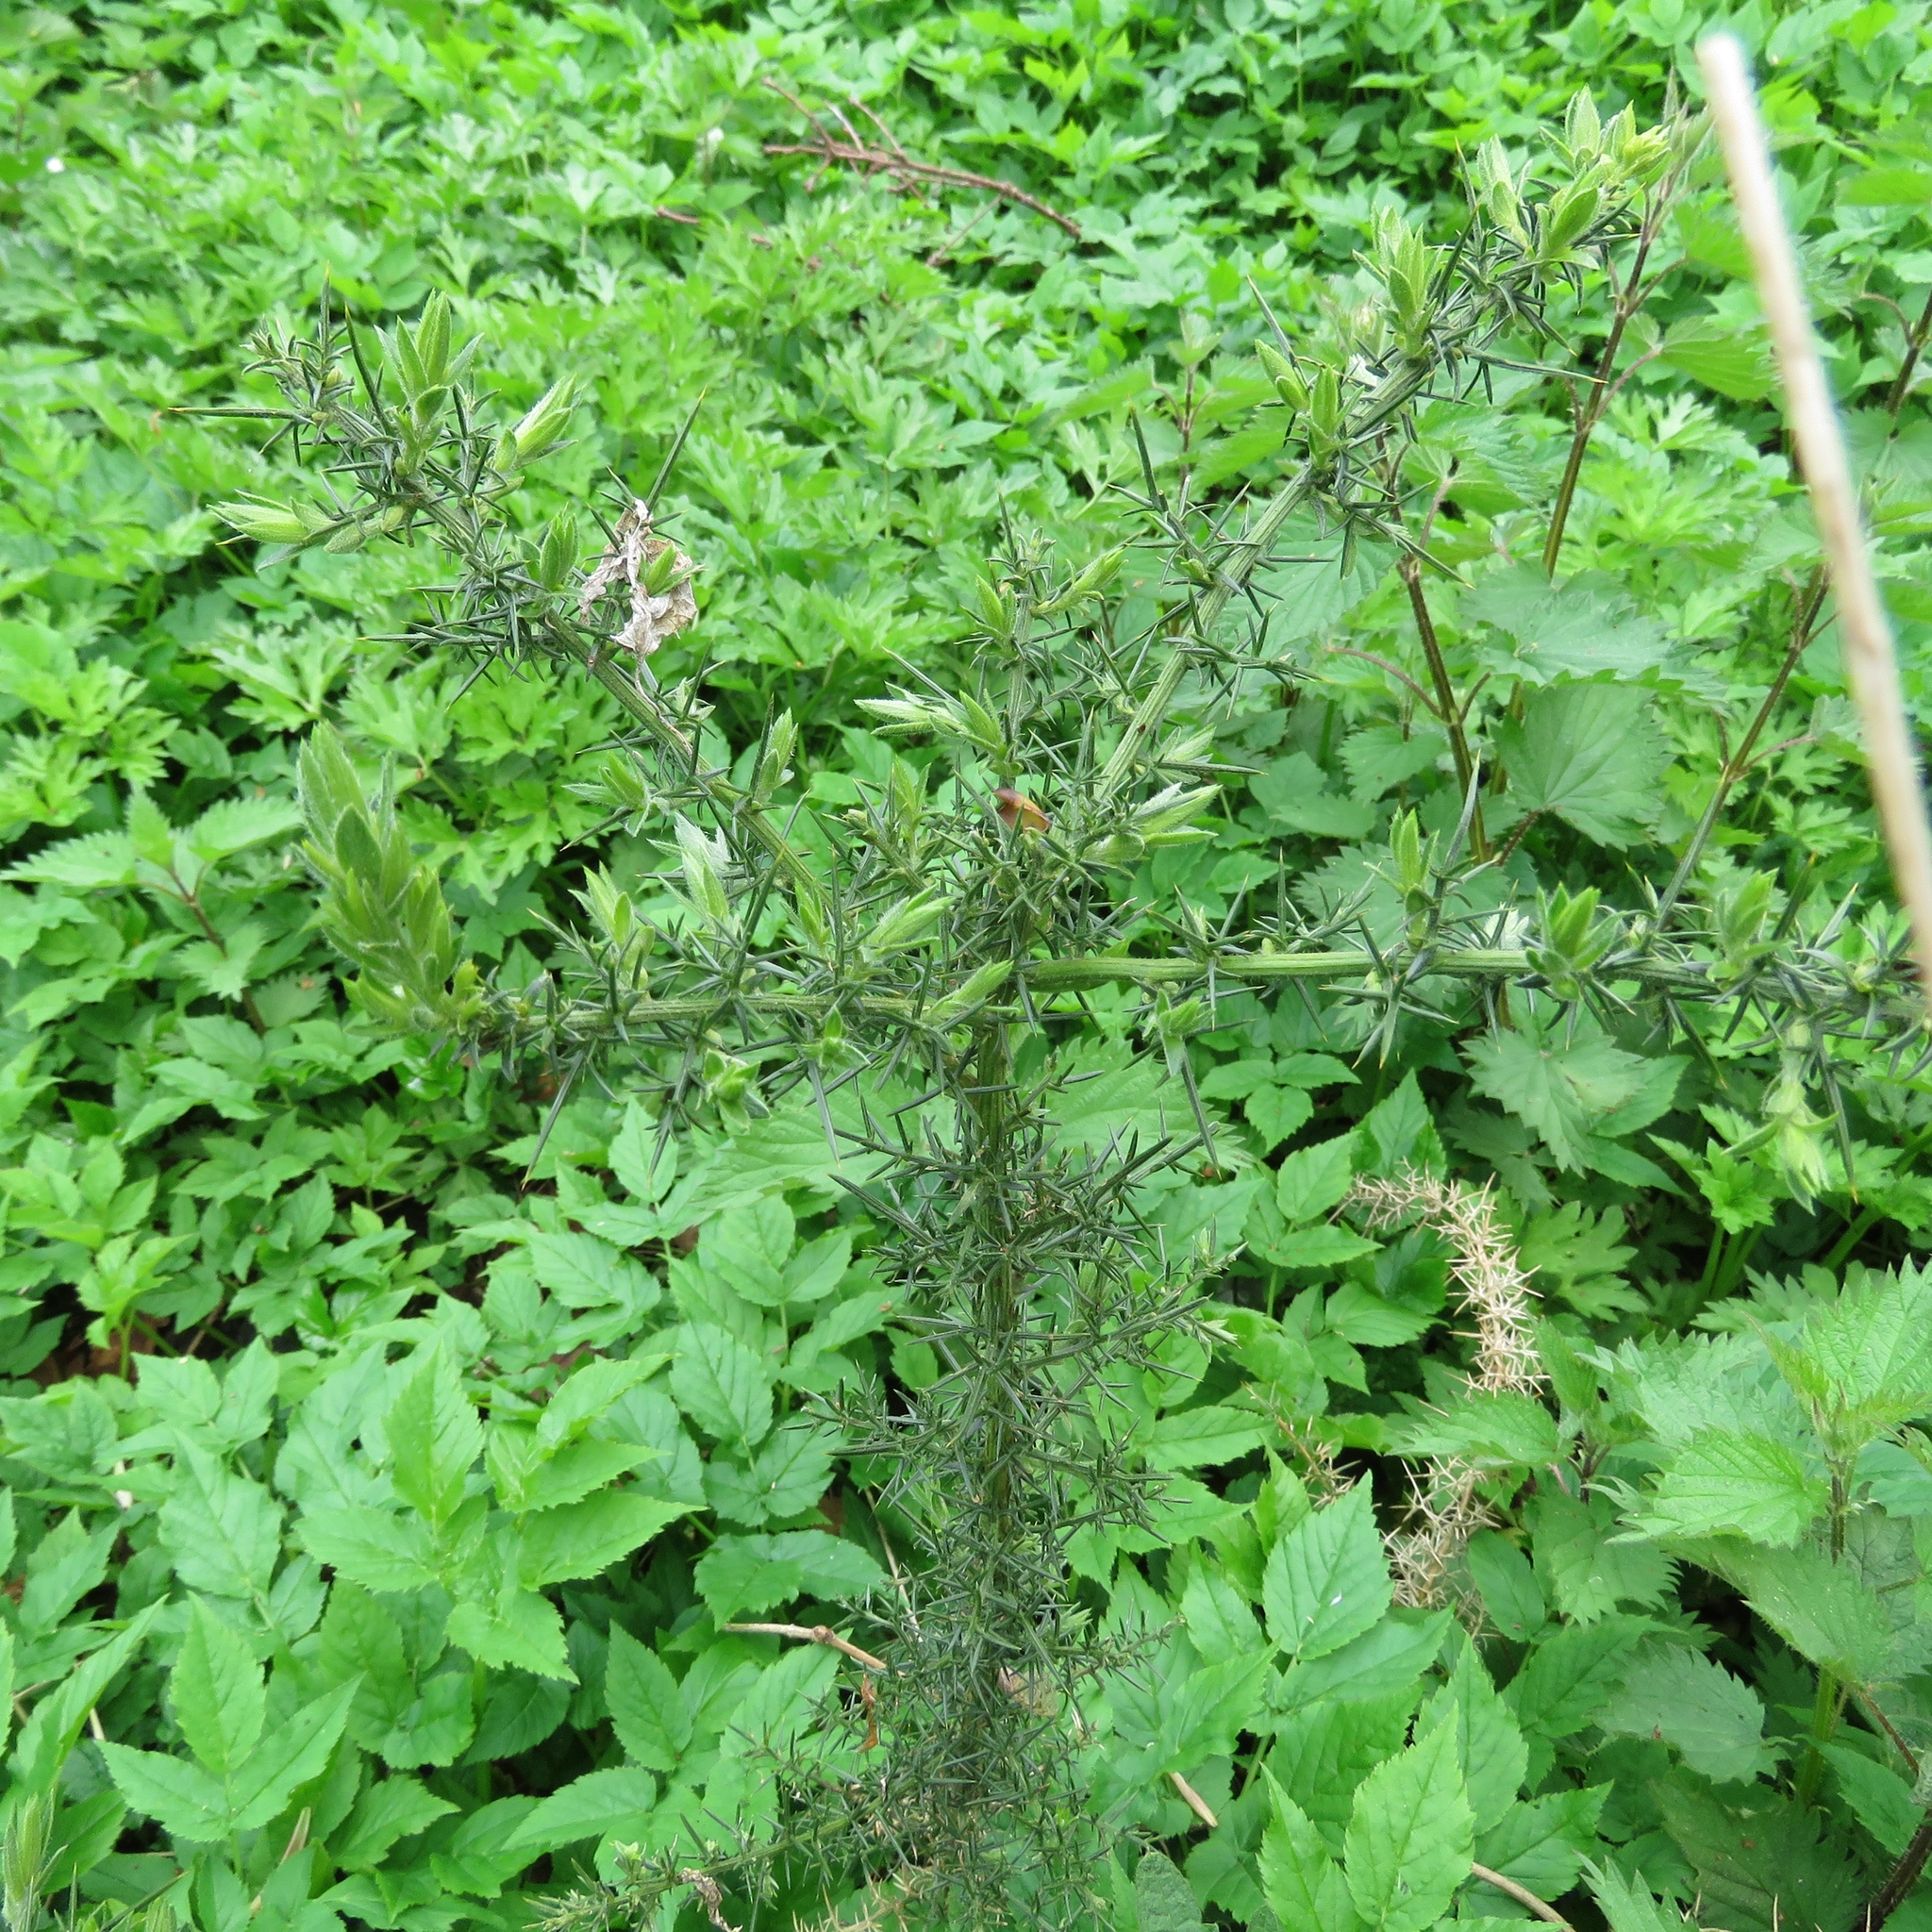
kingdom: Plantae
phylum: Tracheophyta
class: Magnoliopsida
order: Fabales
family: Fabaceae
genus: Ulex
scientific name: Ulex europaeus
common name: Common gorse
